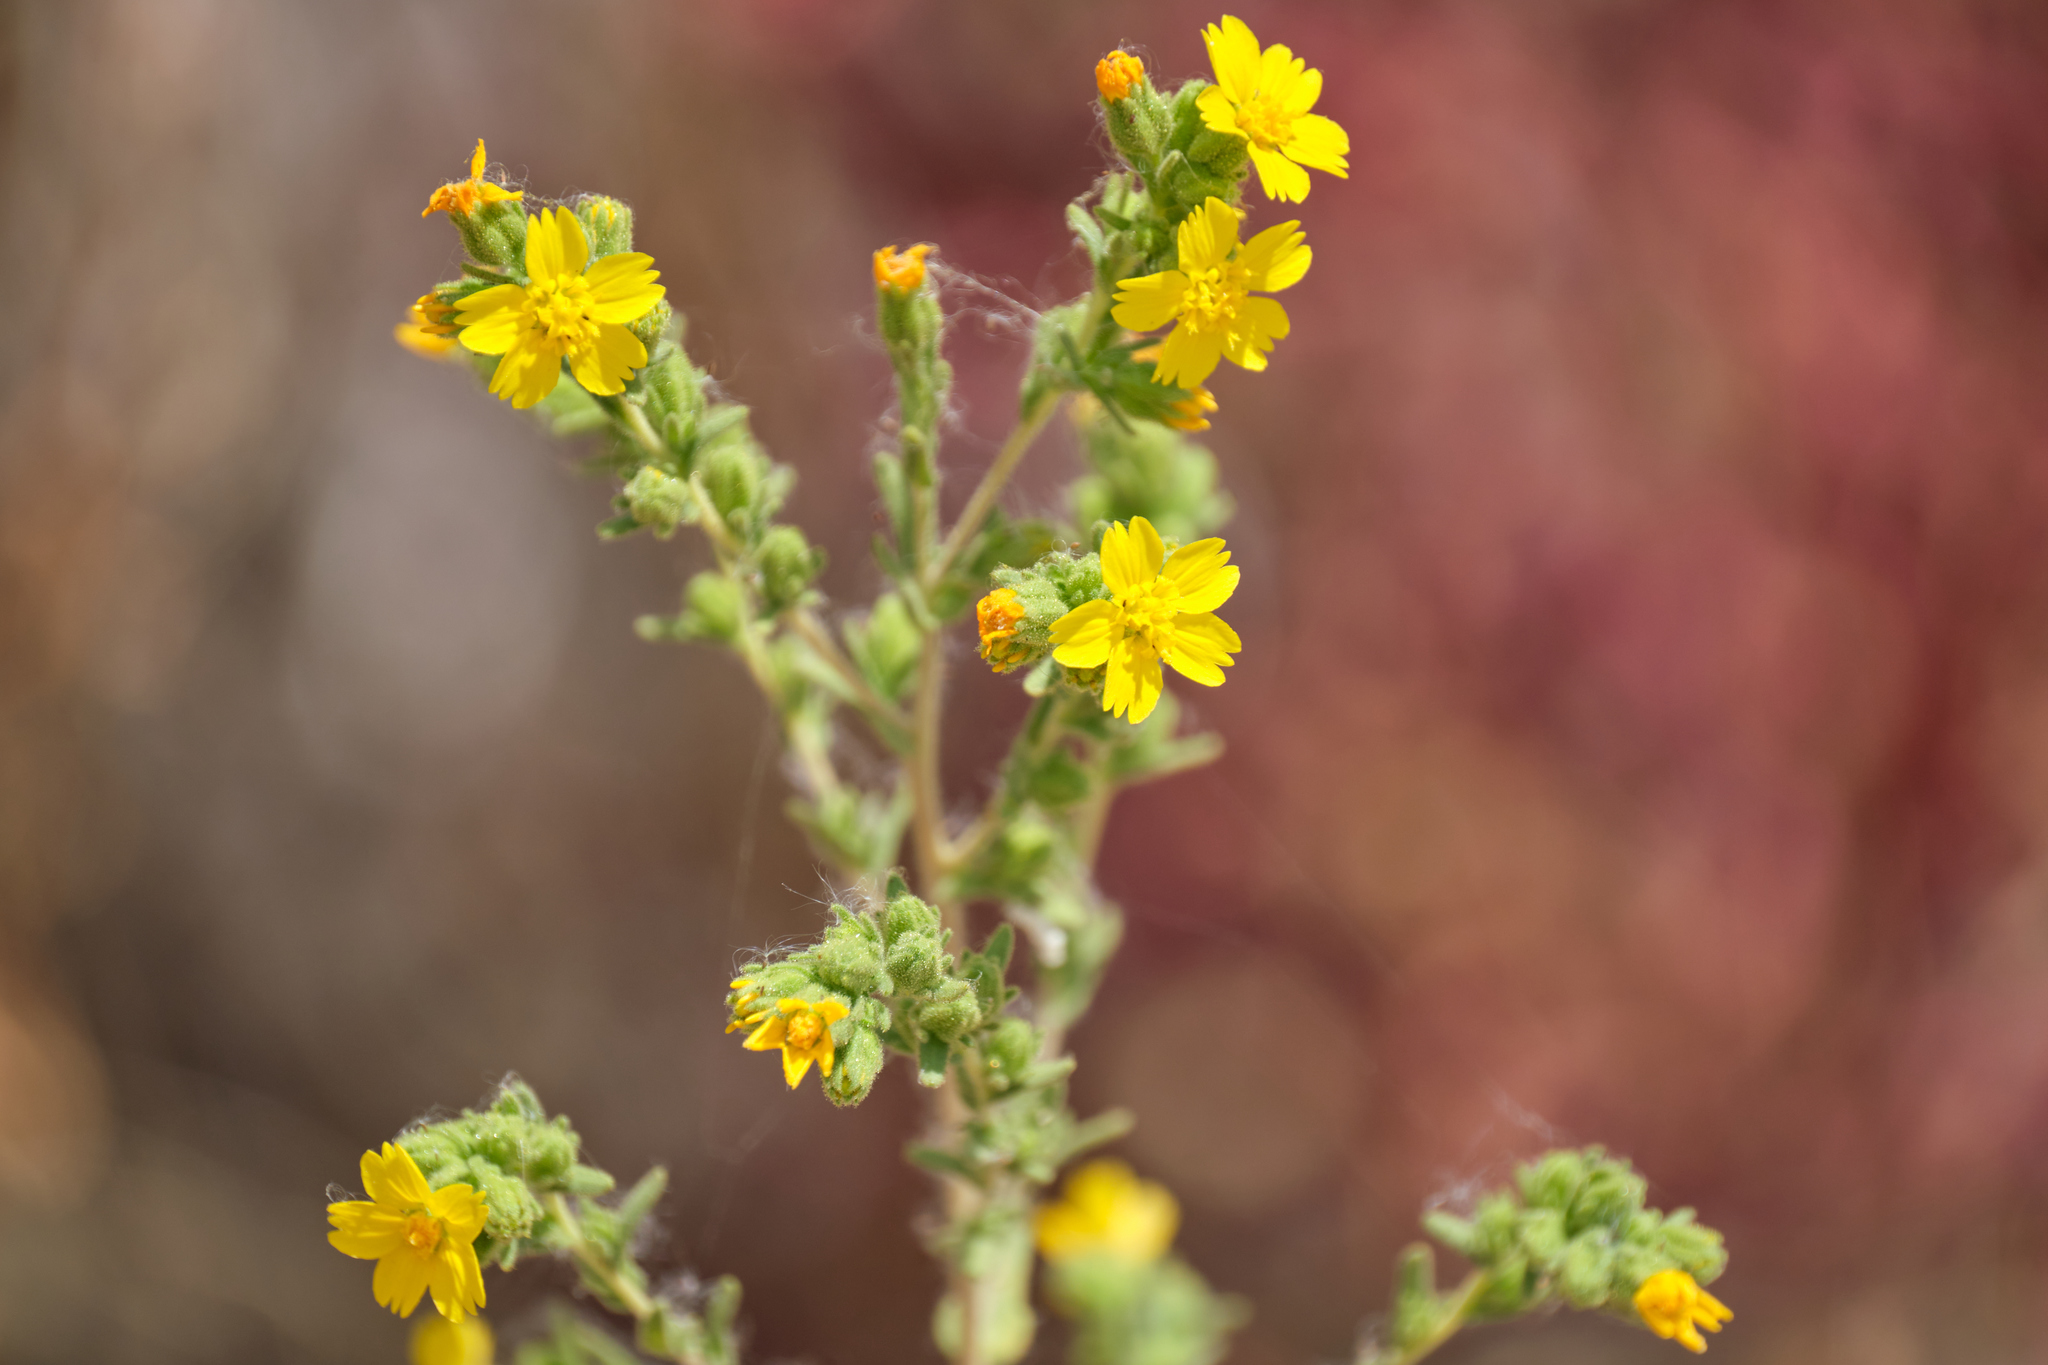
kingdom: Plantae
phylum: Tracheophyta
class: Magnoliopsida
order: Asterales
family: Asteraceae
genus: Deinandra
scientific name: Deinandra mohavensis
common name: Mojave tarplant
